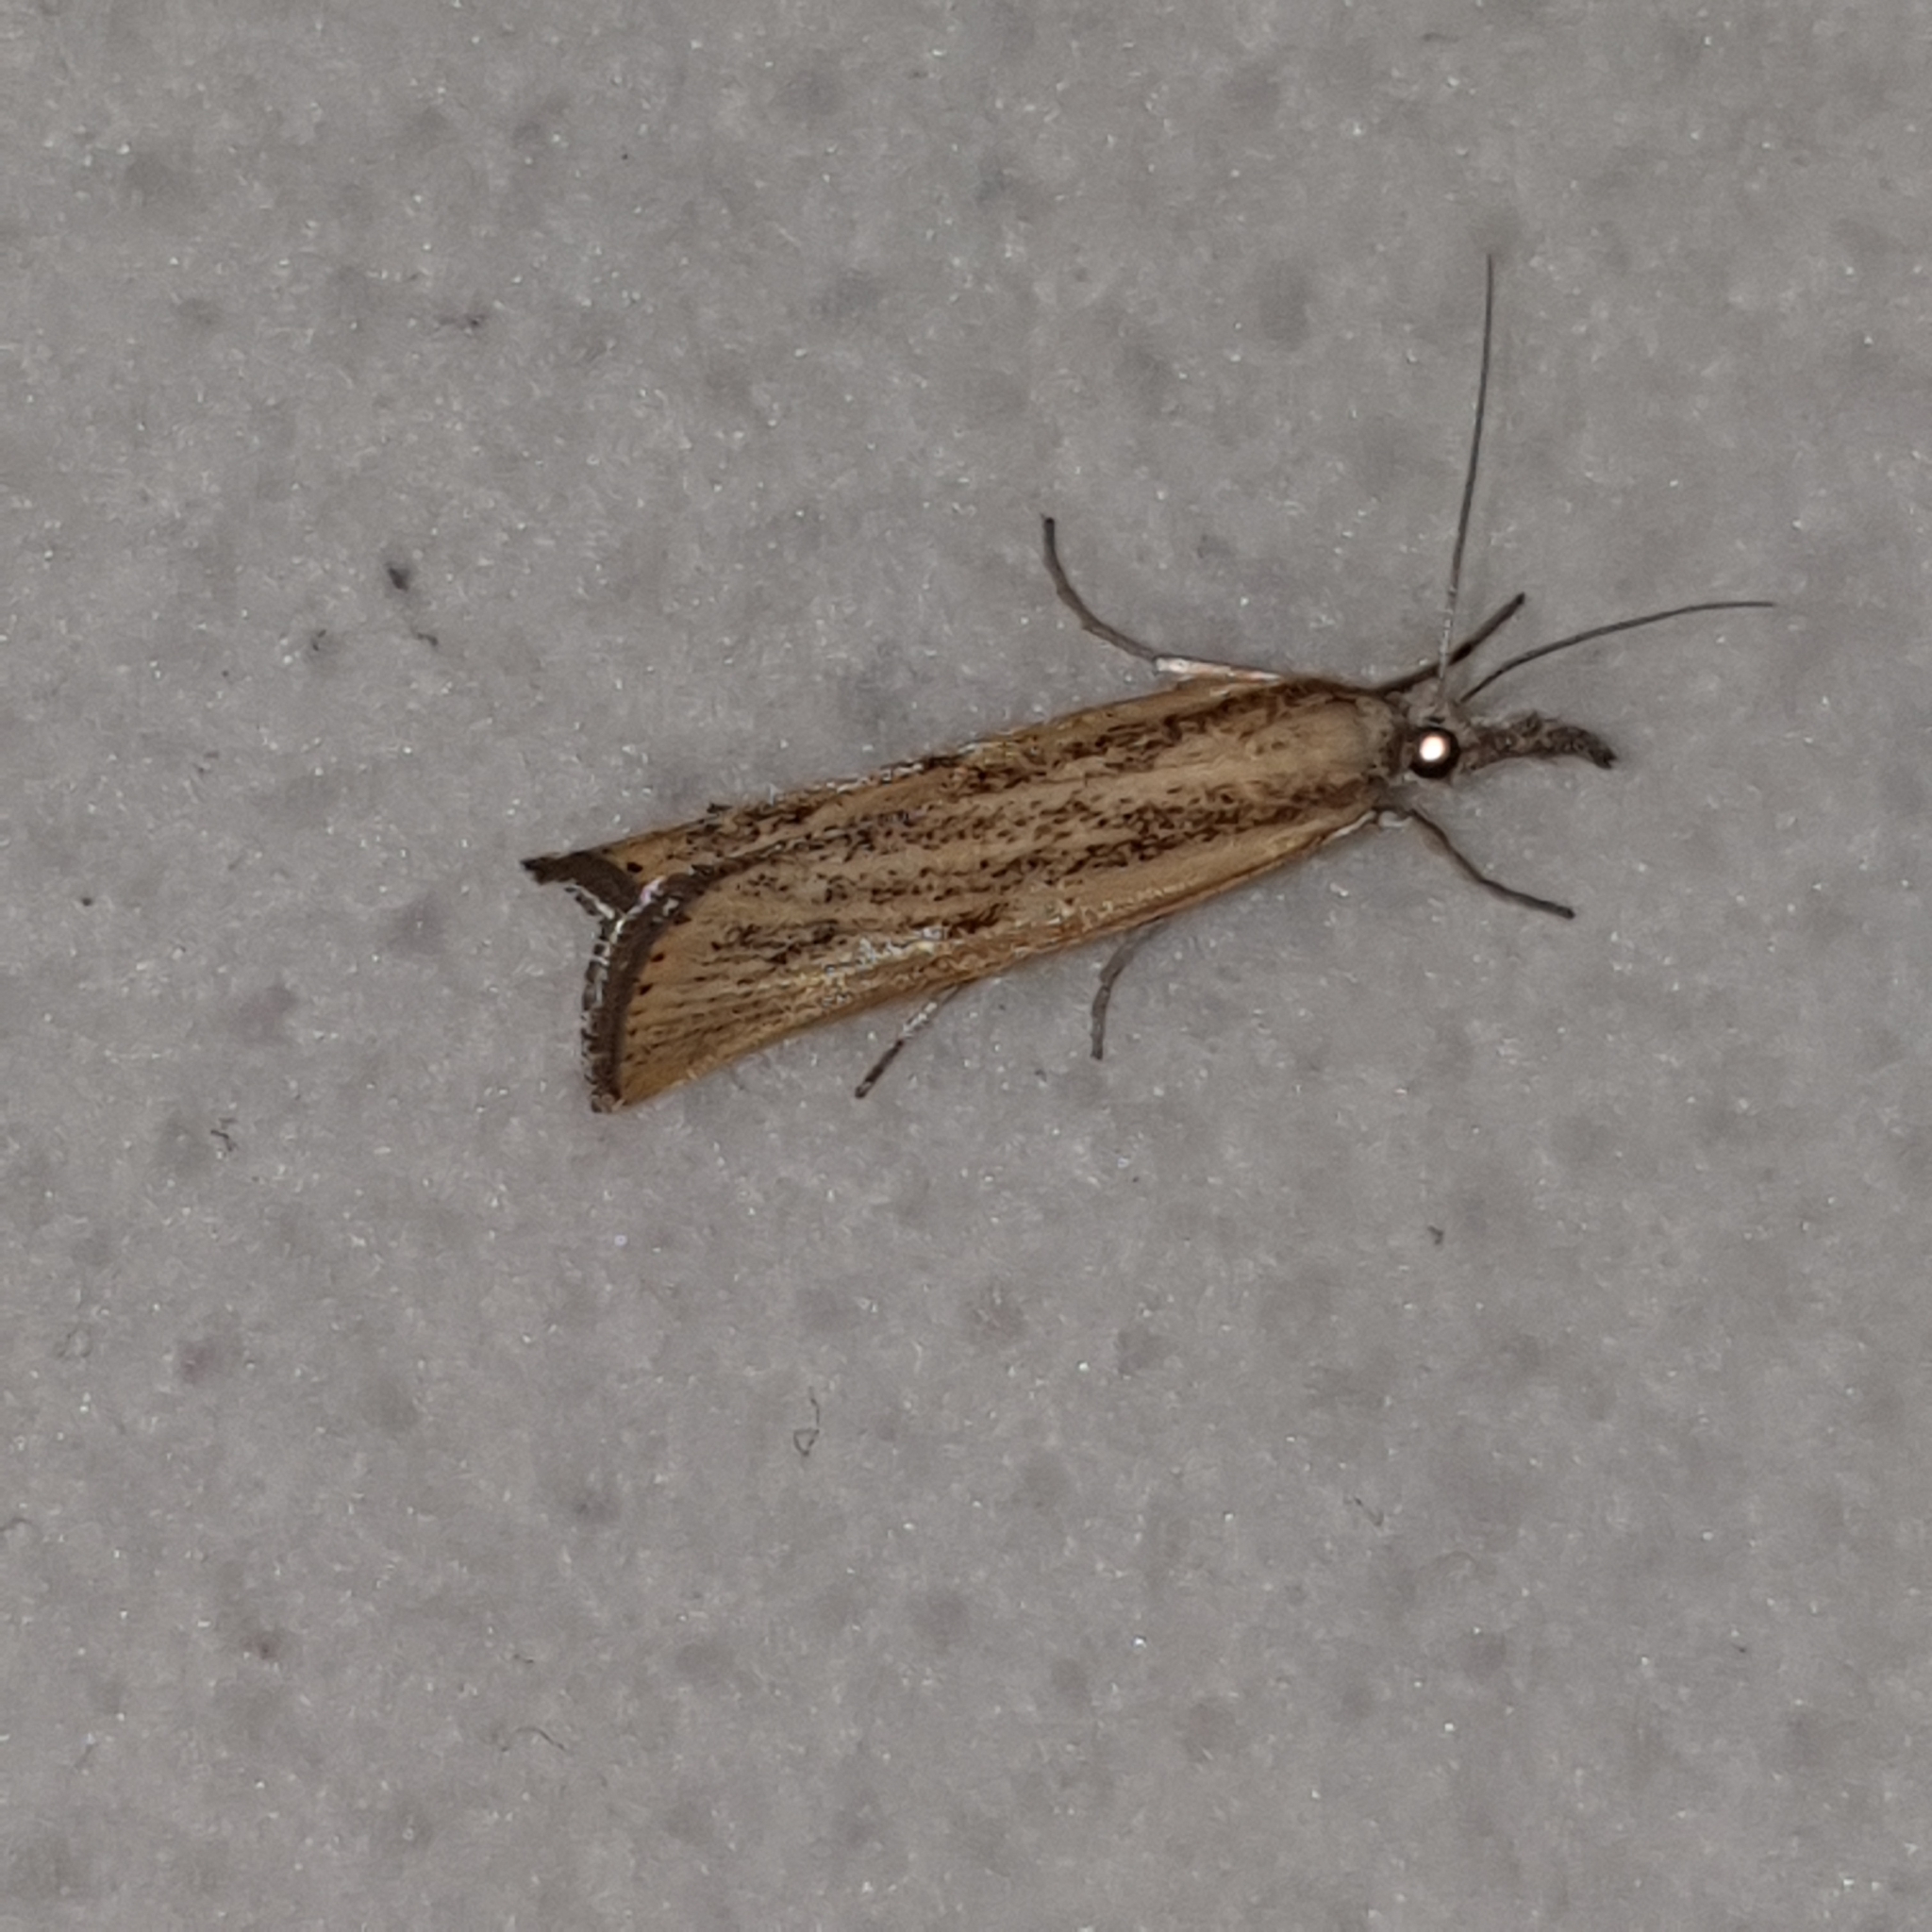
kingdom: Animalia
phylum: Arthropoda
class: Insecta
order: Lepidoptera
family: Crambidae
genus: Agriphila
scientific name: Agriphila inquinatella
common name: Barred grass-veneer
